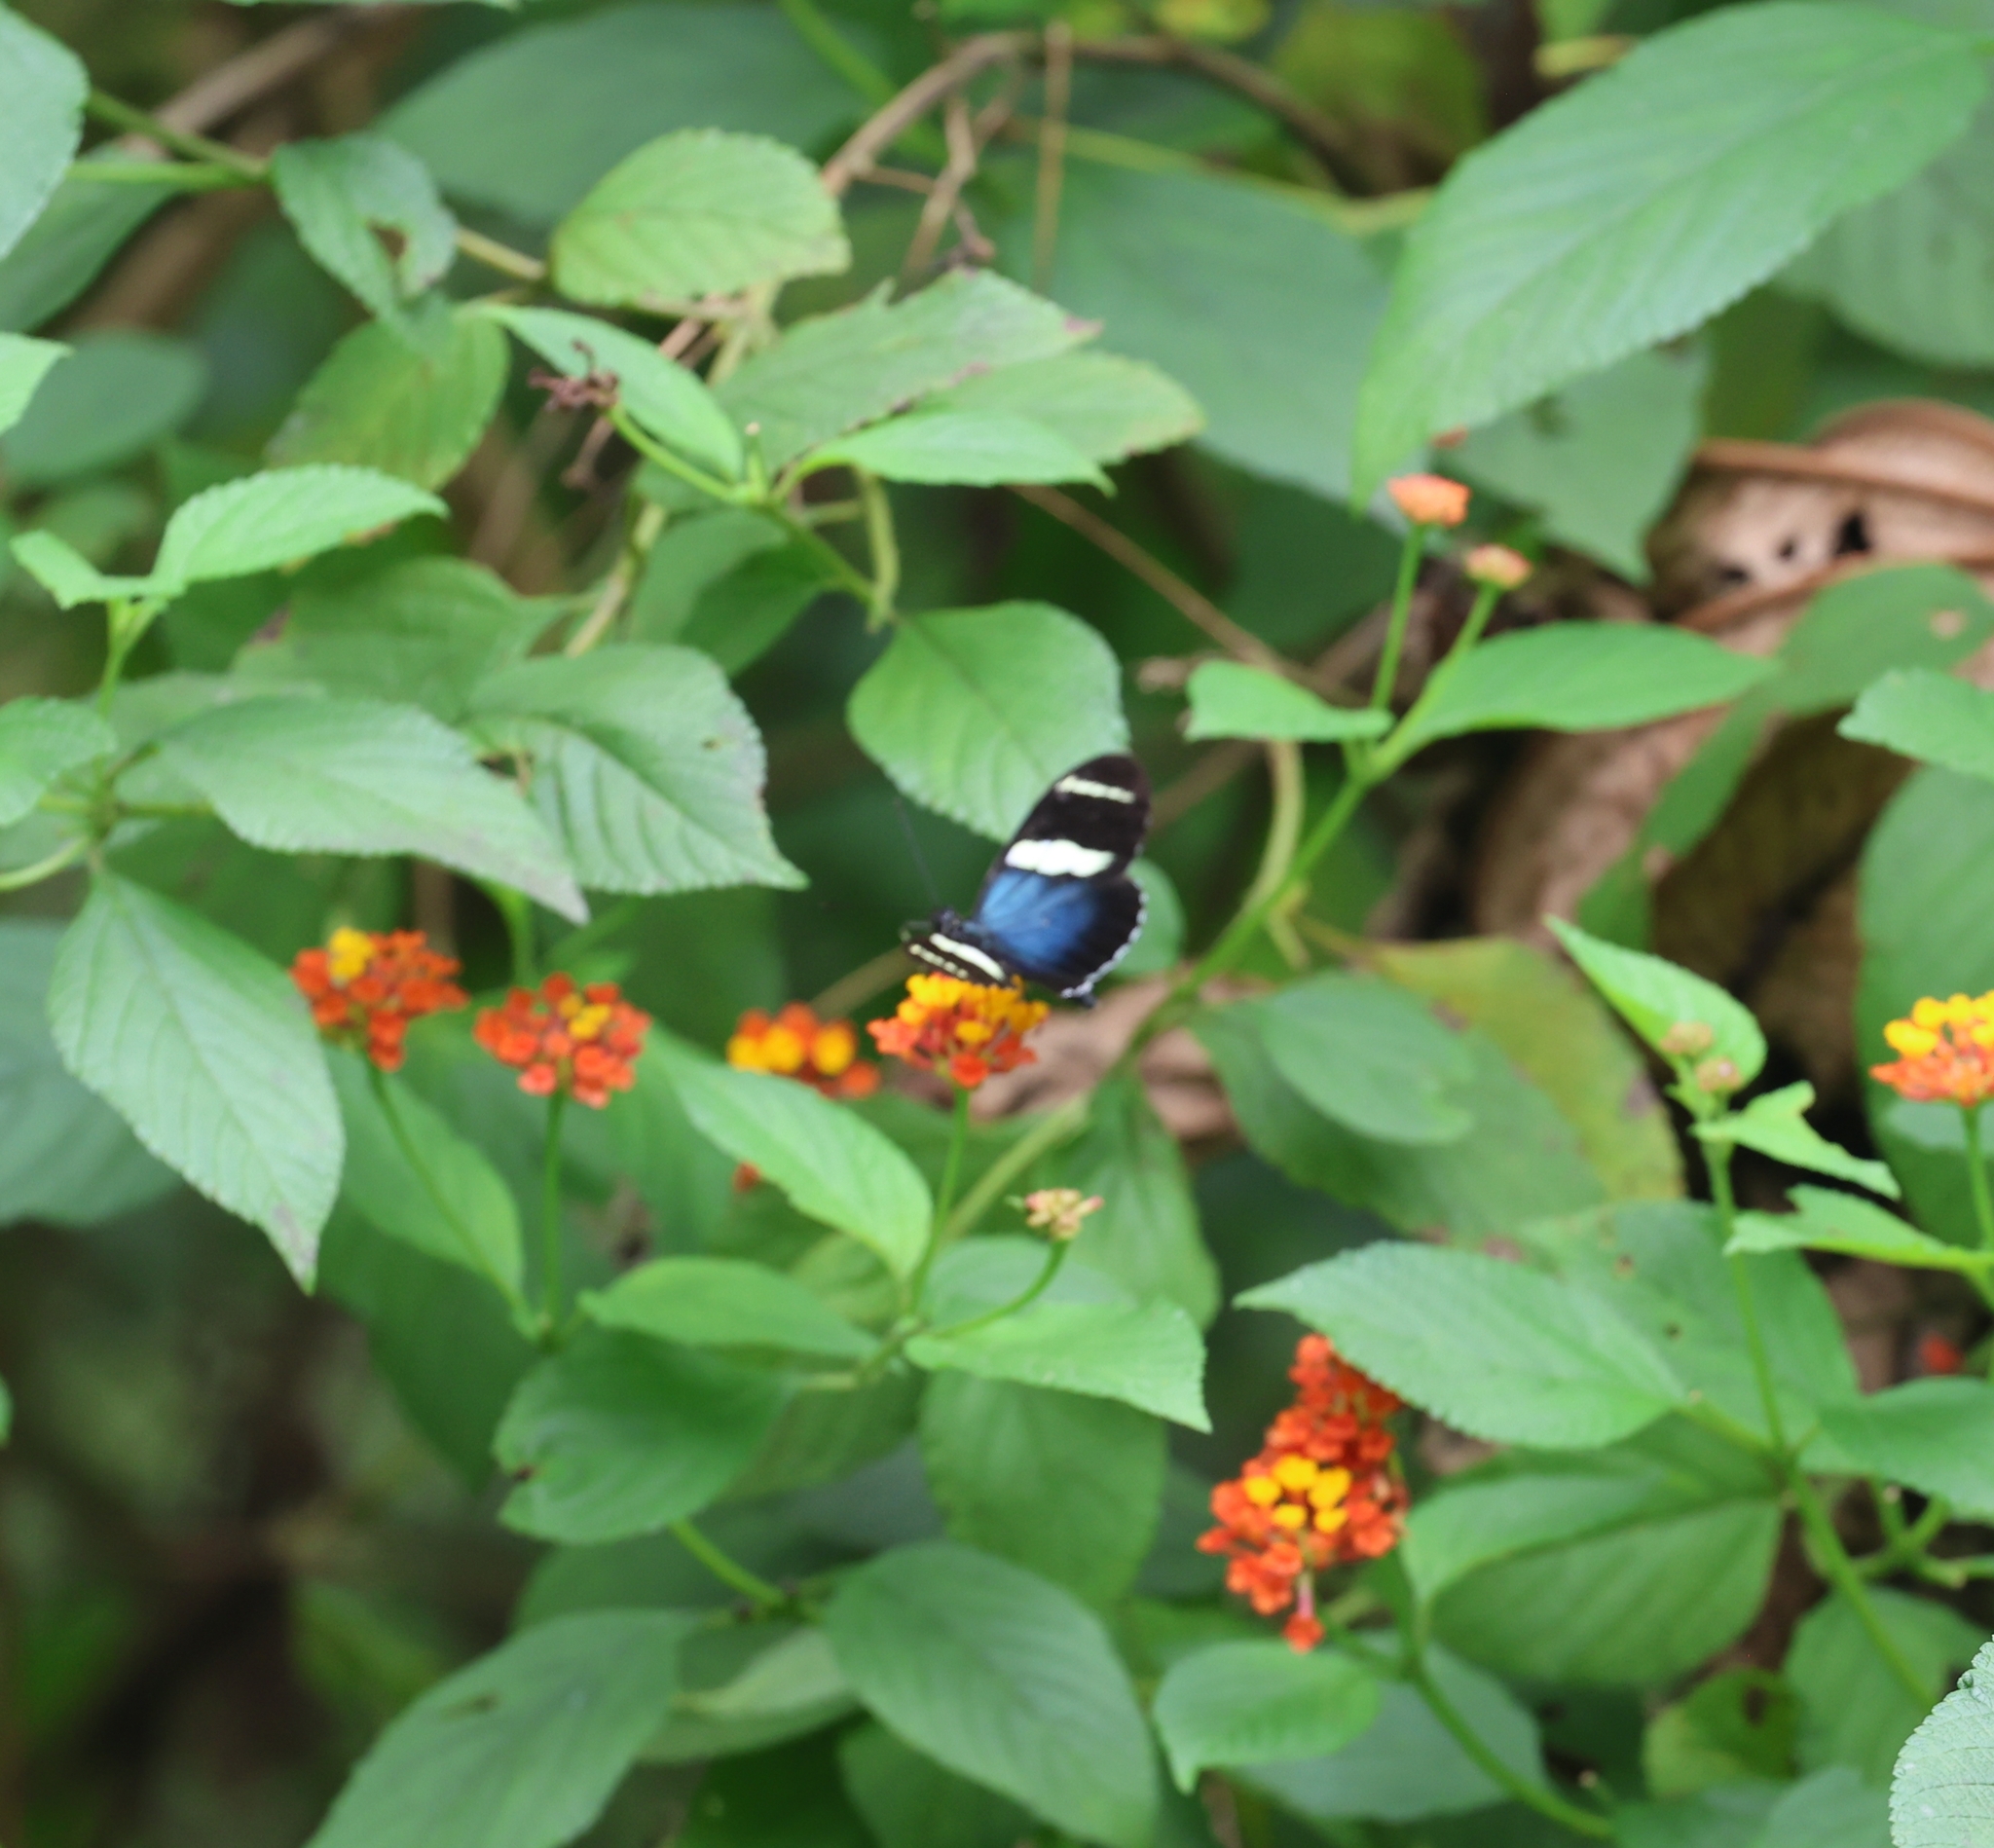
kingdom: Animalia
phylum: Arthropoda
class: Insecta
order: Lepidoptera
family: Nymphalidae
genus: Heliconius
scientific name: Heliconius sara
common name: Sara longwing
